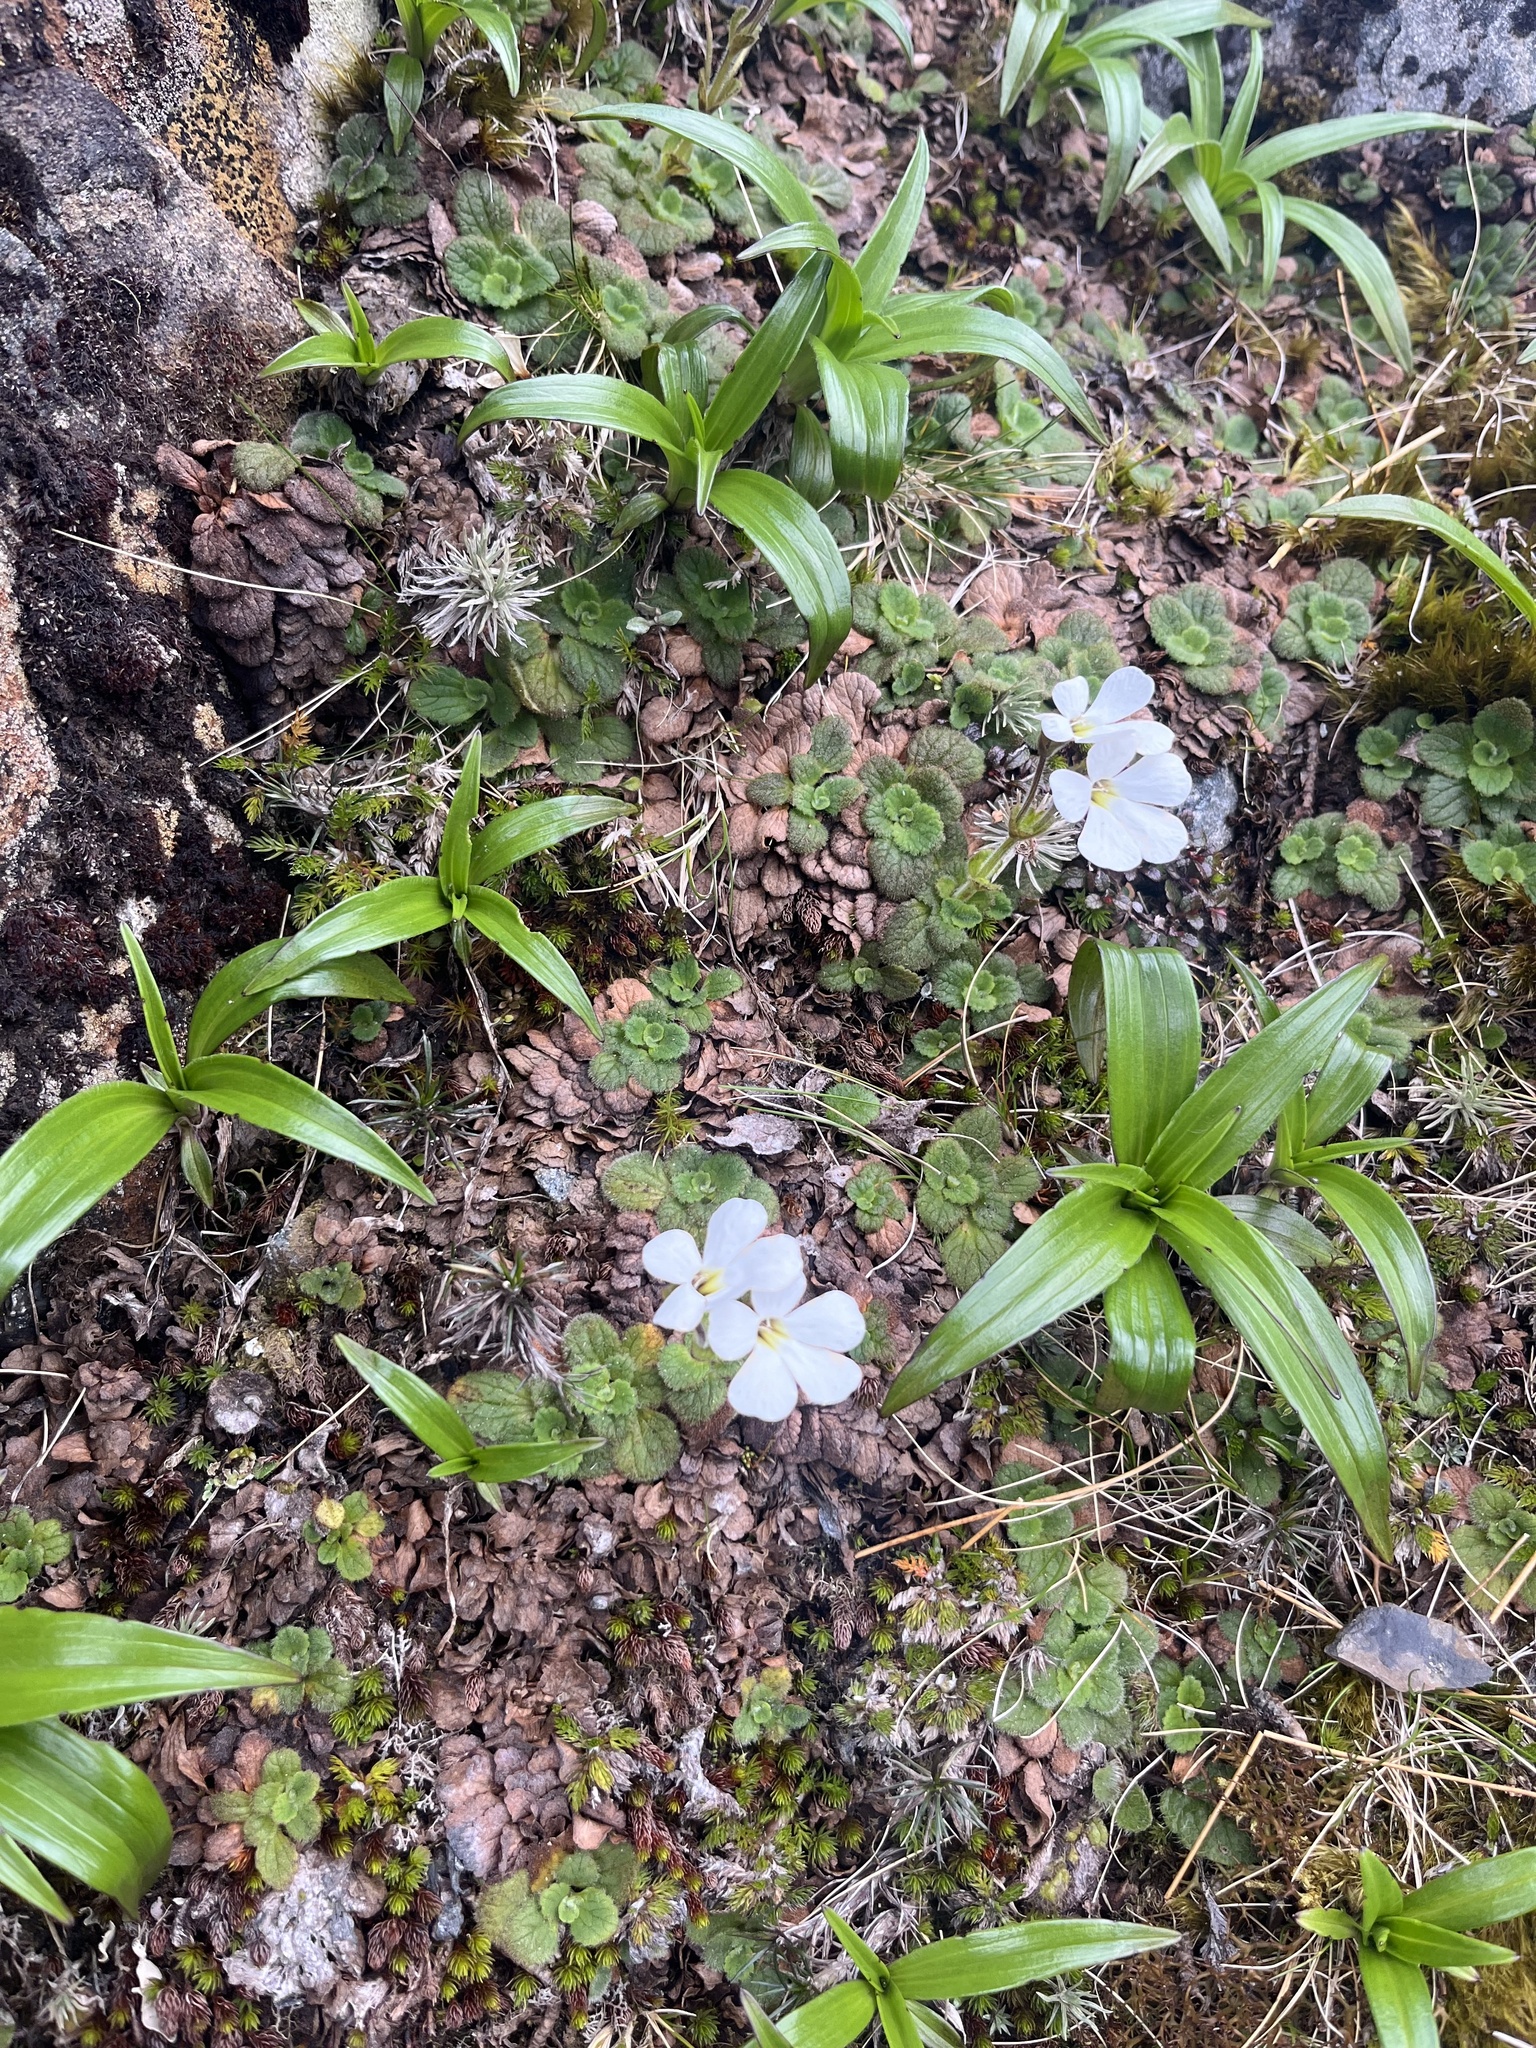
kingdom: Plantae
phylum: Tracheophyta
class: Magnoliopsida
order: Lamiales
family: Plantaginaceae
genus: Ourisia
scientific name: Ourisia simpsonii
